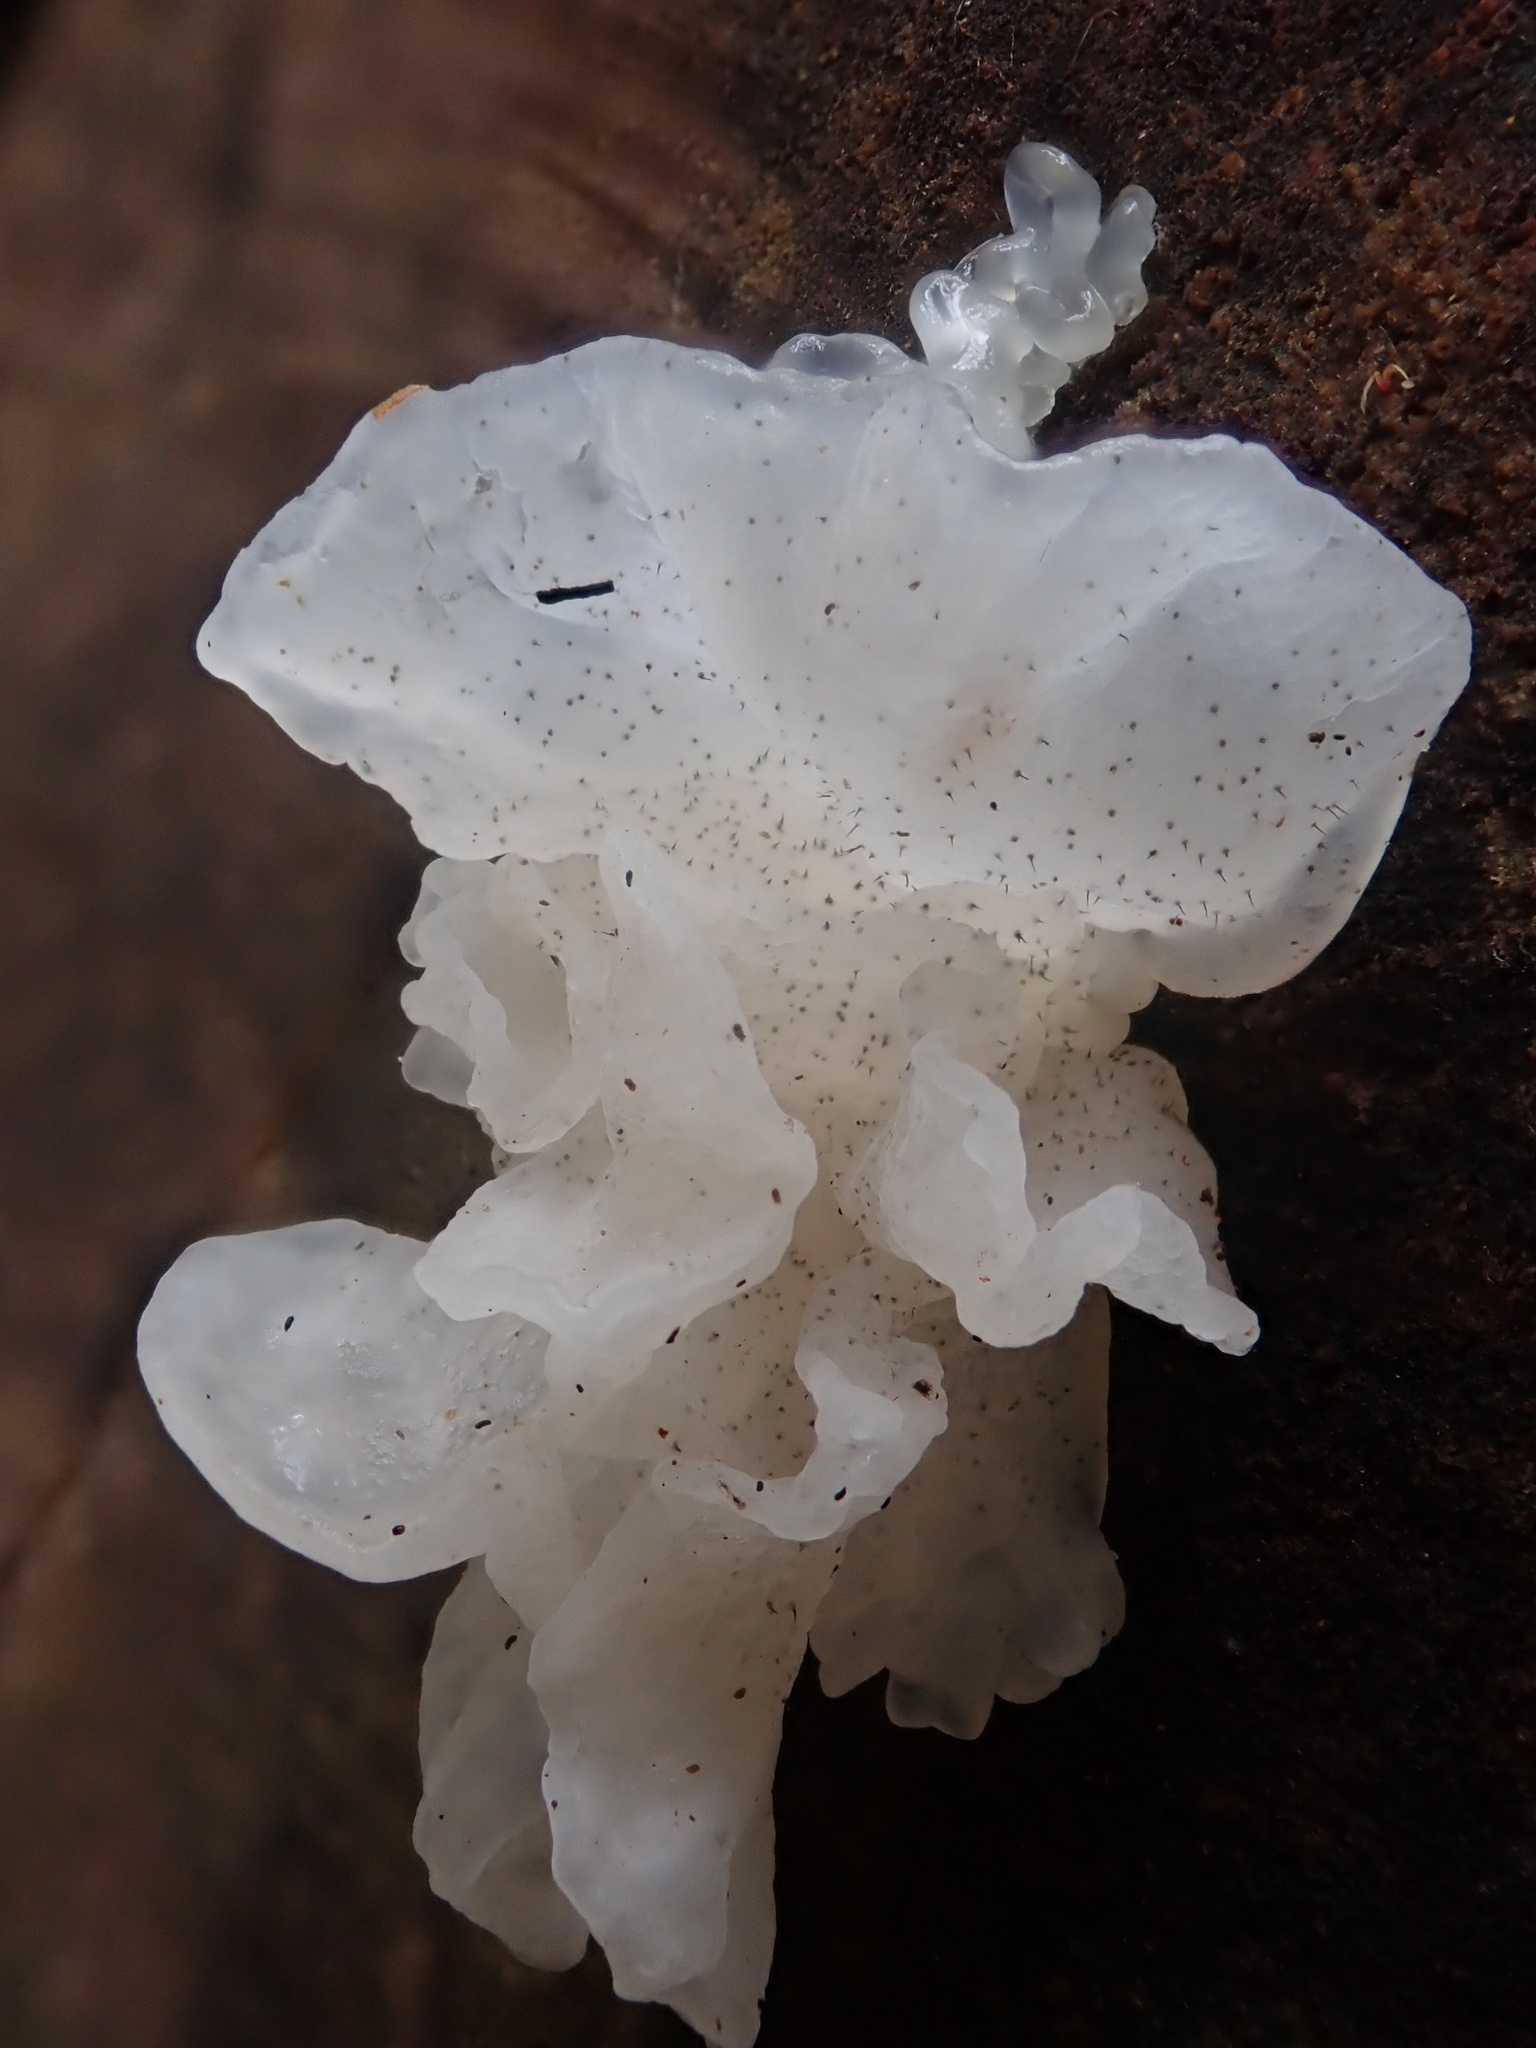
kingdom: Fungi
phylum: Basidiomycota
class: Tremellomycetes
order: Tremellales
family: Tremellaceae
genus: Tremella
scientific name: Tremella fuciformis
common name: Snow fungus
